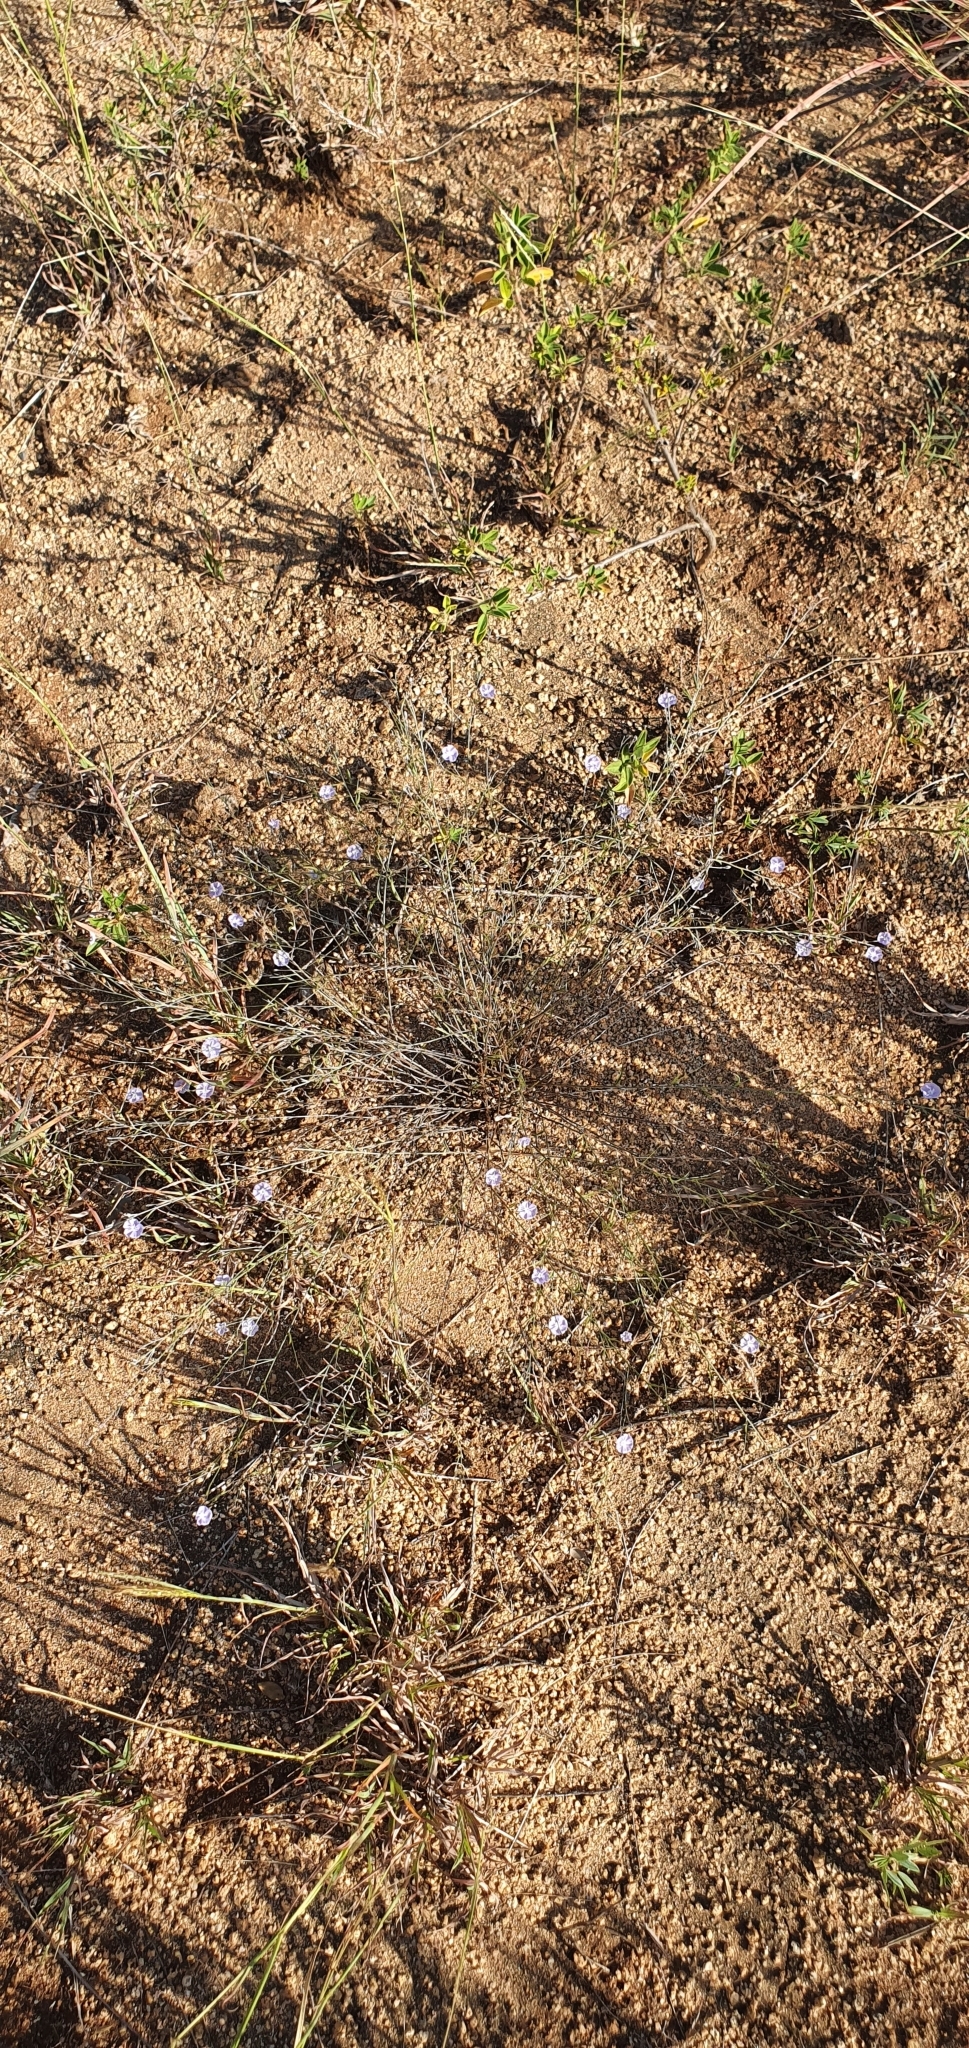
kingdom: Plantae
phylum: Tracheophyta
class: Magnoliopsida
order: Solanales
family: Convolvulaceae
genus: Evolvulus
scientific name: Evolvulus alsinoides
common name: Slender dwarf morning-glory
